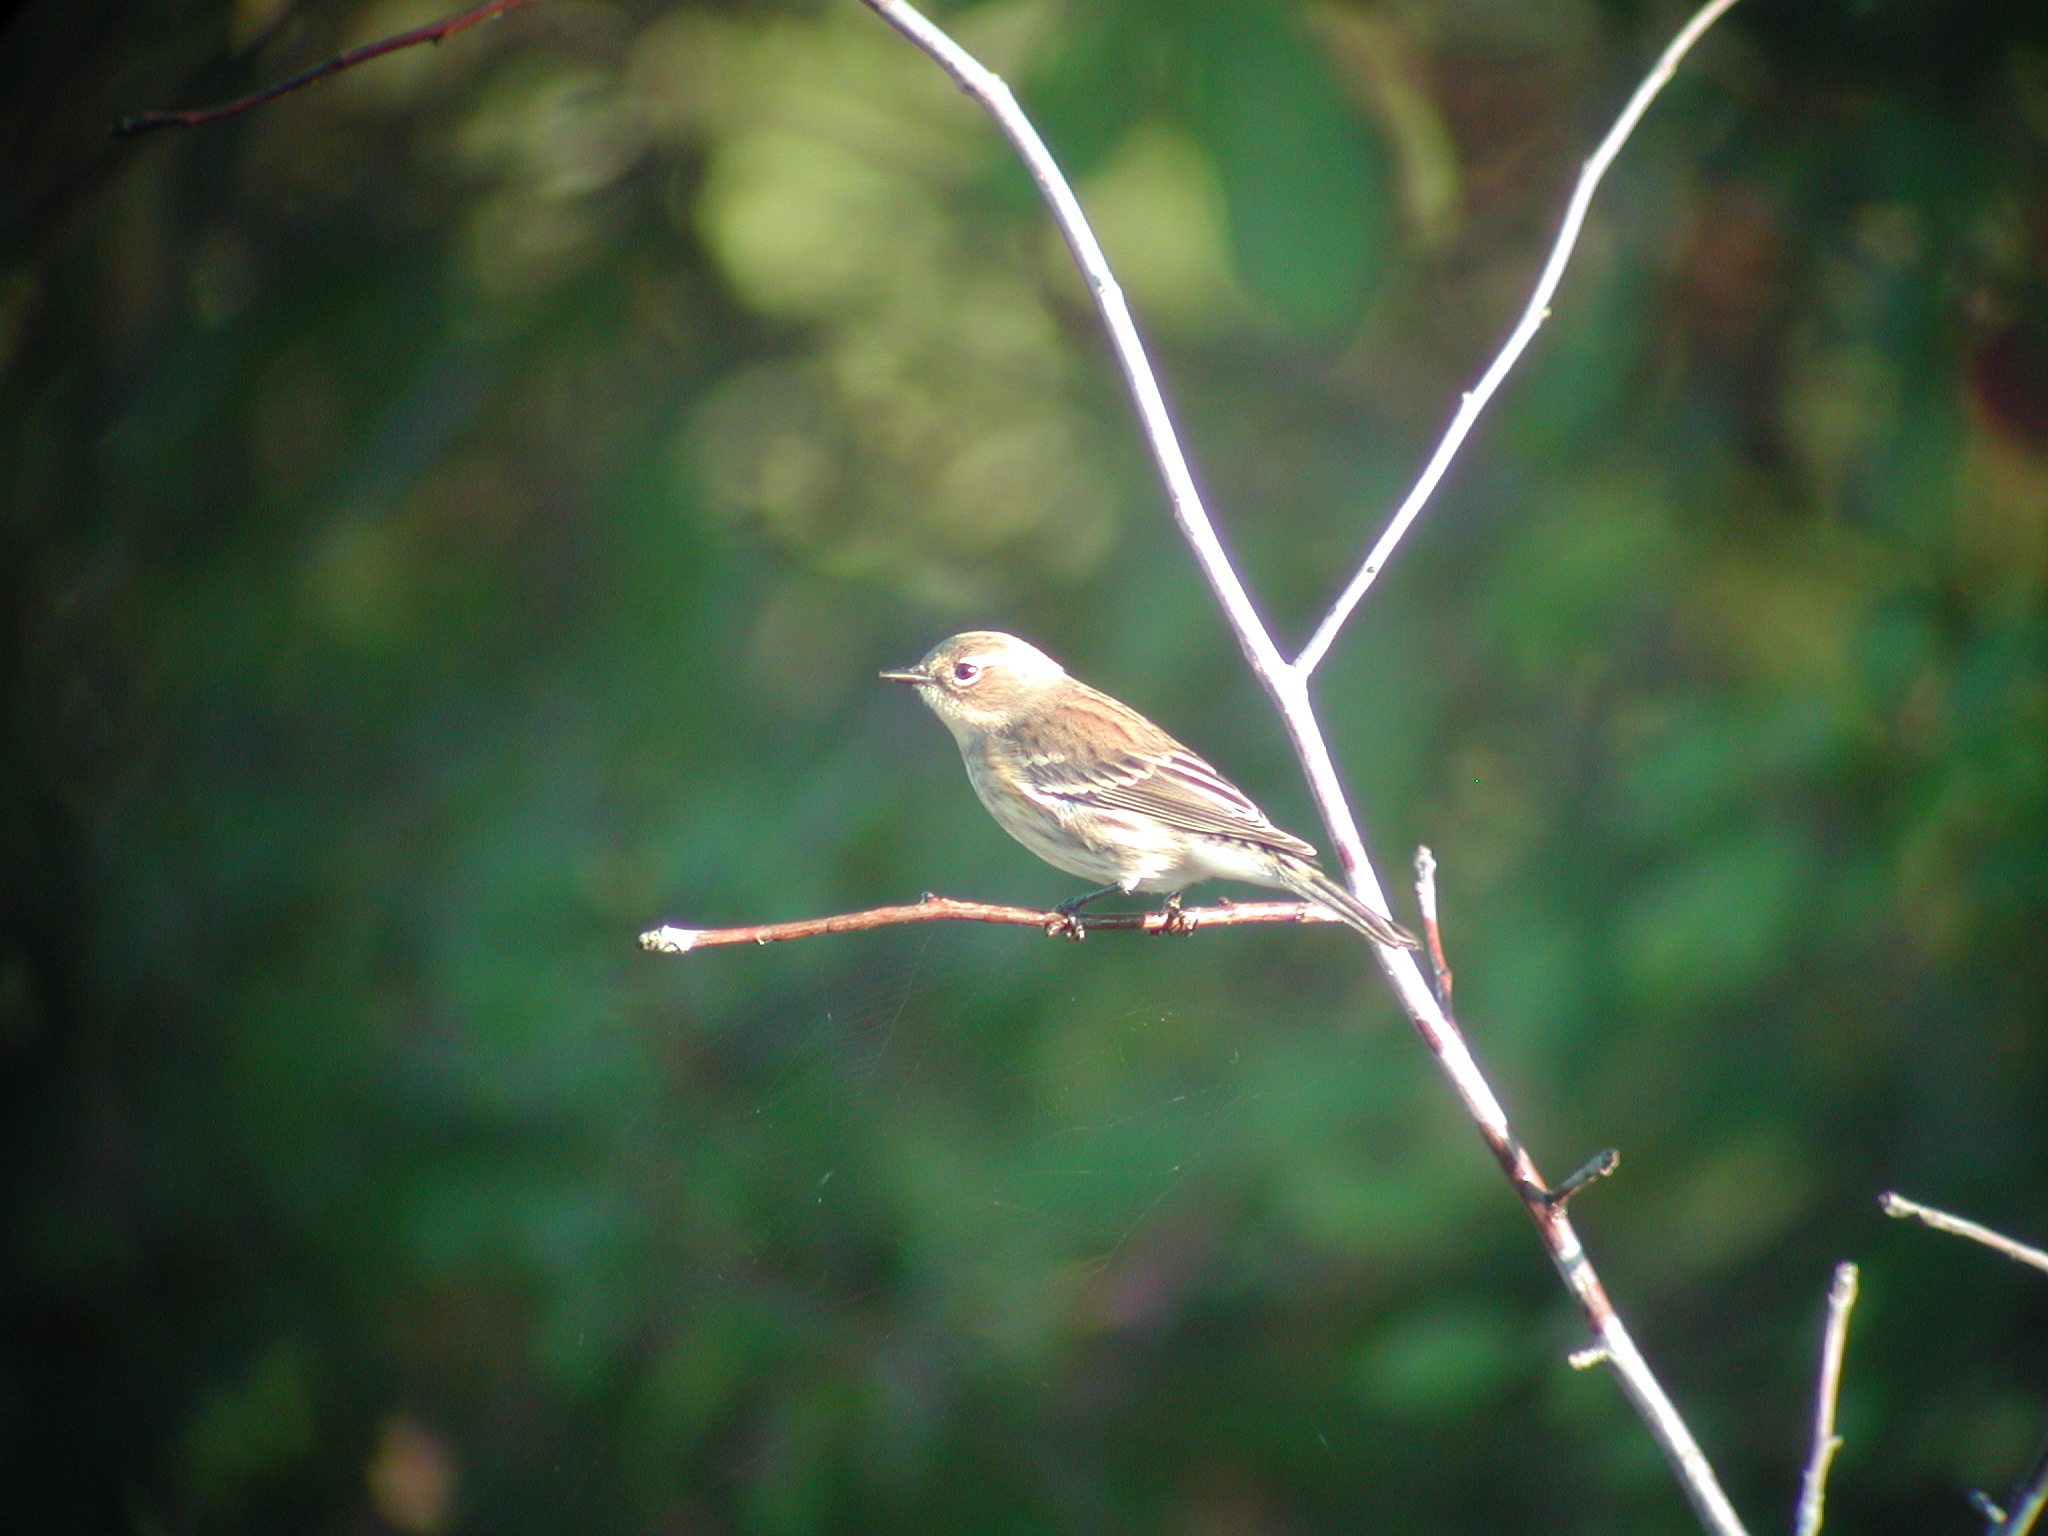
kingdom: Animalia
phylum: Chordata
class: Aves
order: Passeriformes
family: Parulidae
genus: Setophaga
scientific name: Setophaga coronata
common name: Myrtle warbler
